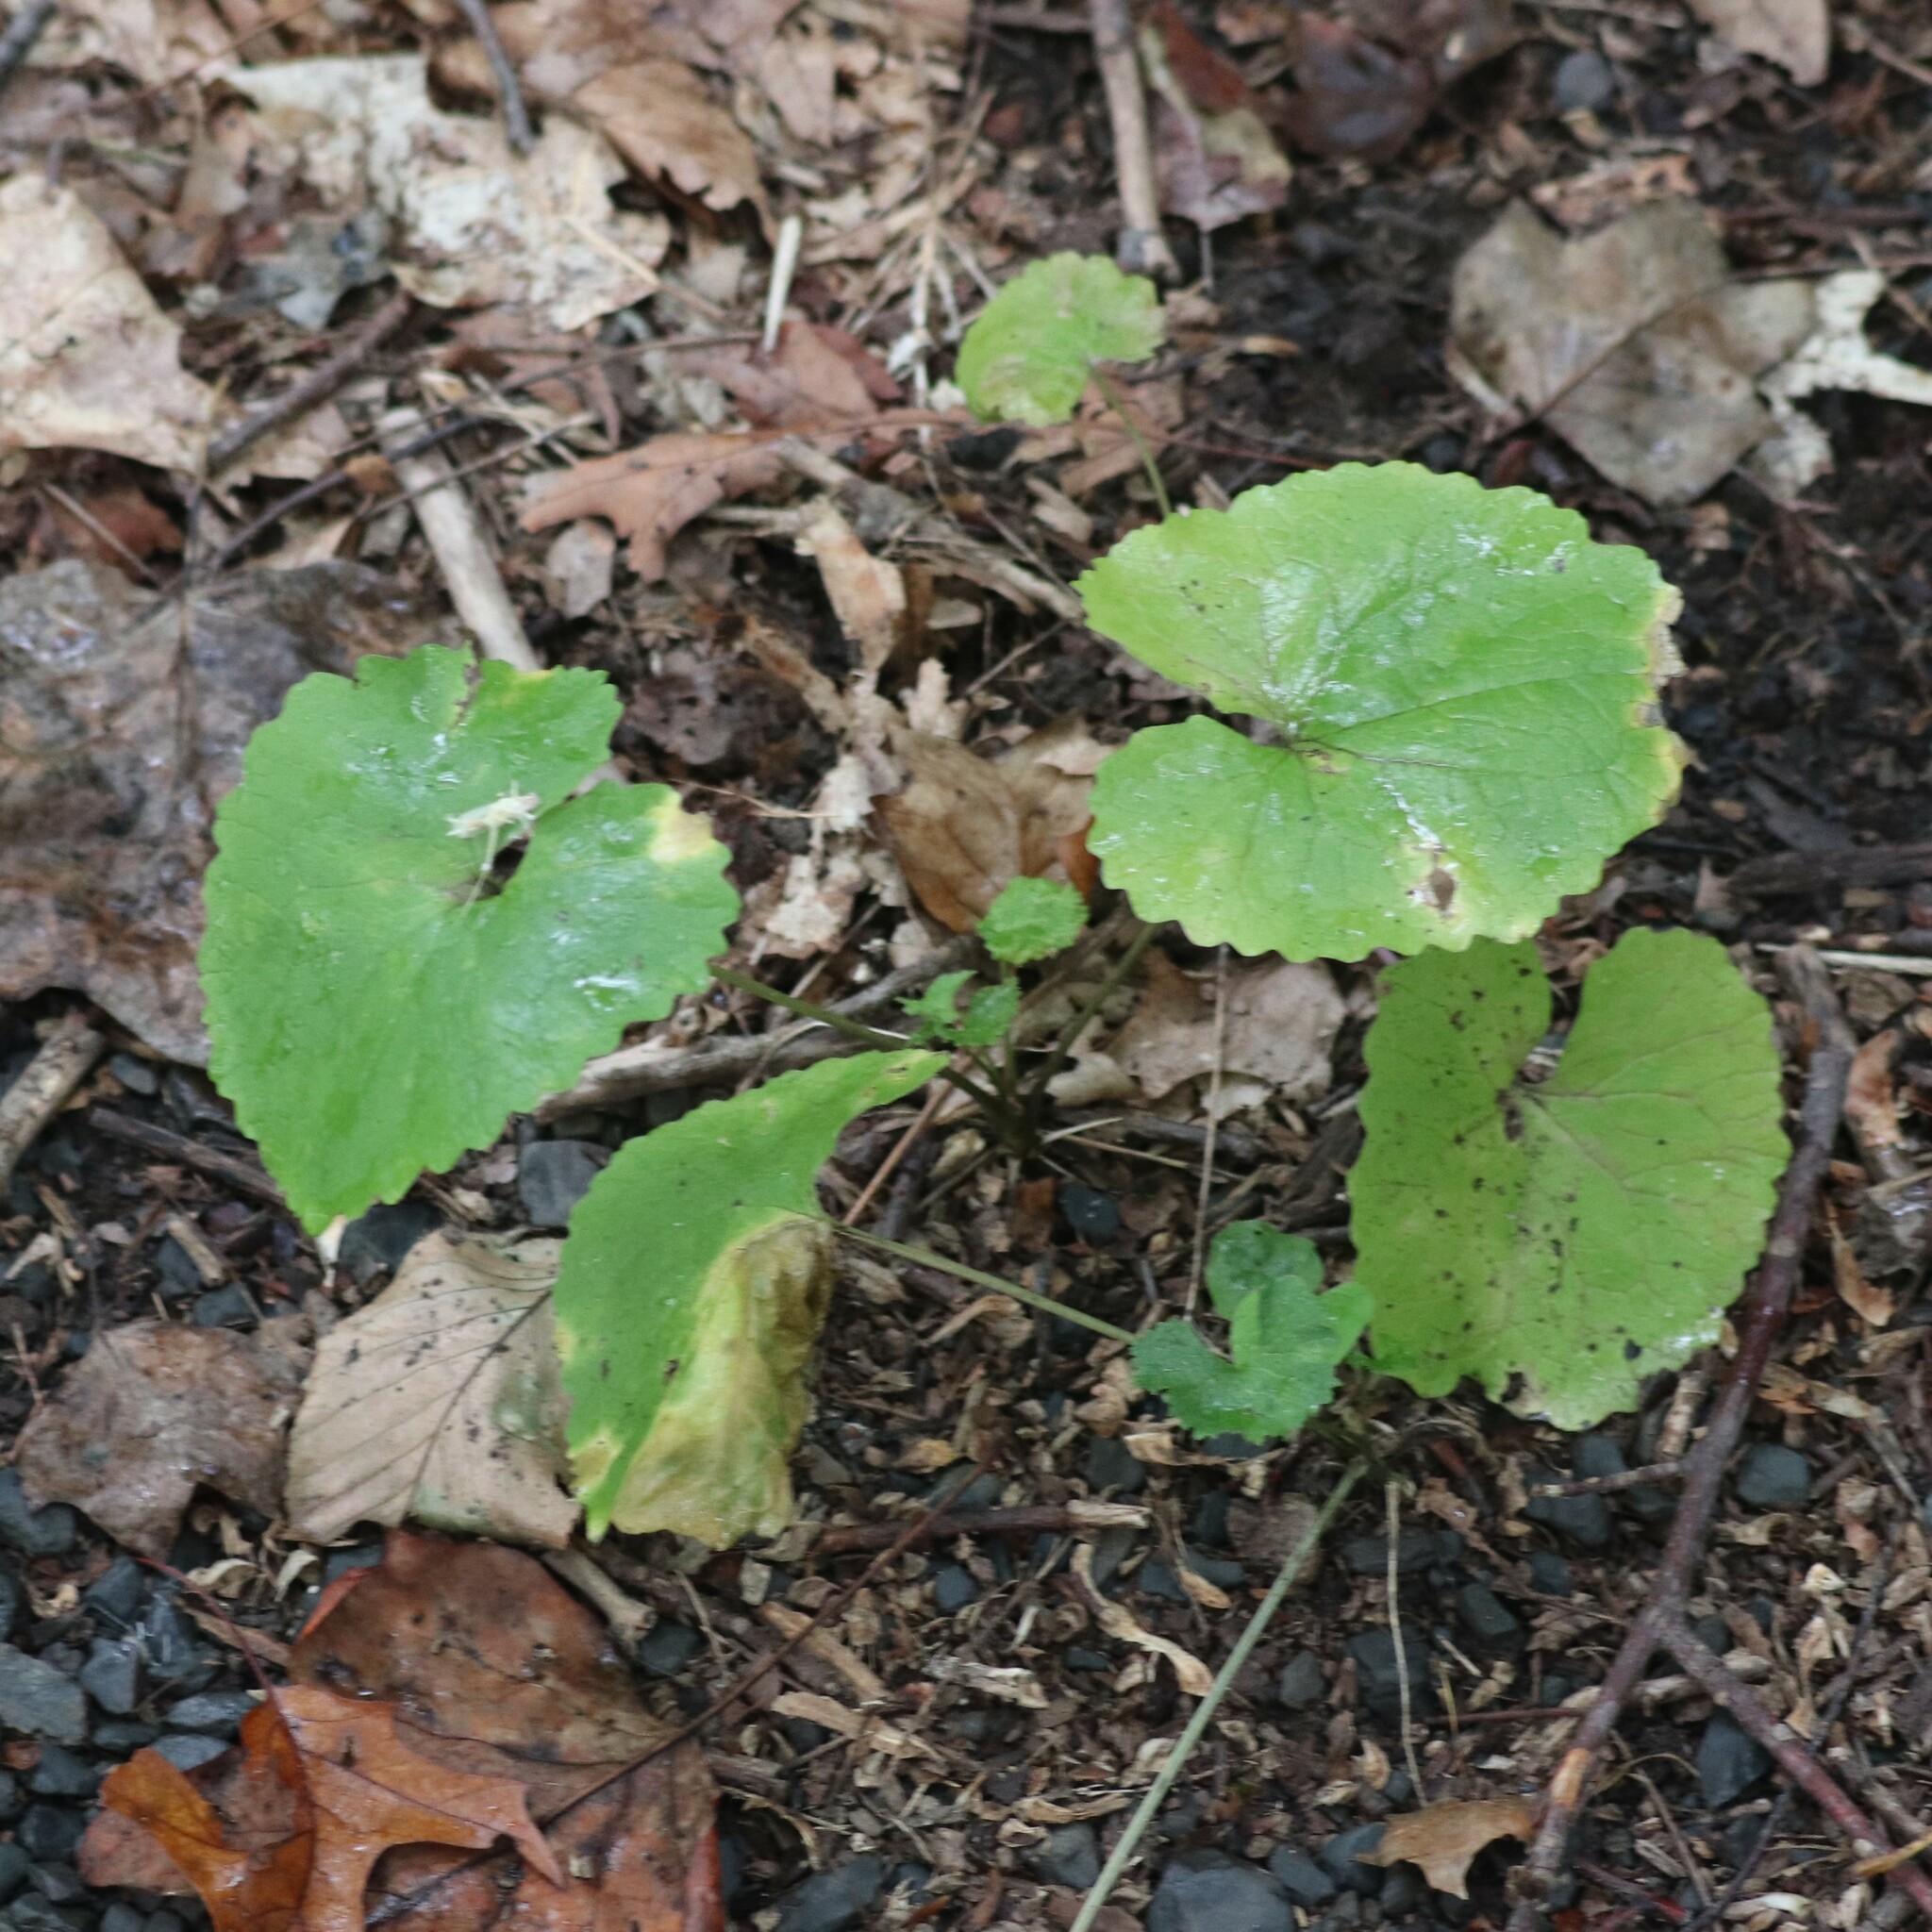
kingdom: Plantae
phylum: Tracheophyta
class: Magnoliopsida
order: Brassicales
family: Brassicaceae
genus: Alliaria
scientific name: Alliaria petiolata
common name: Garlic mustard
